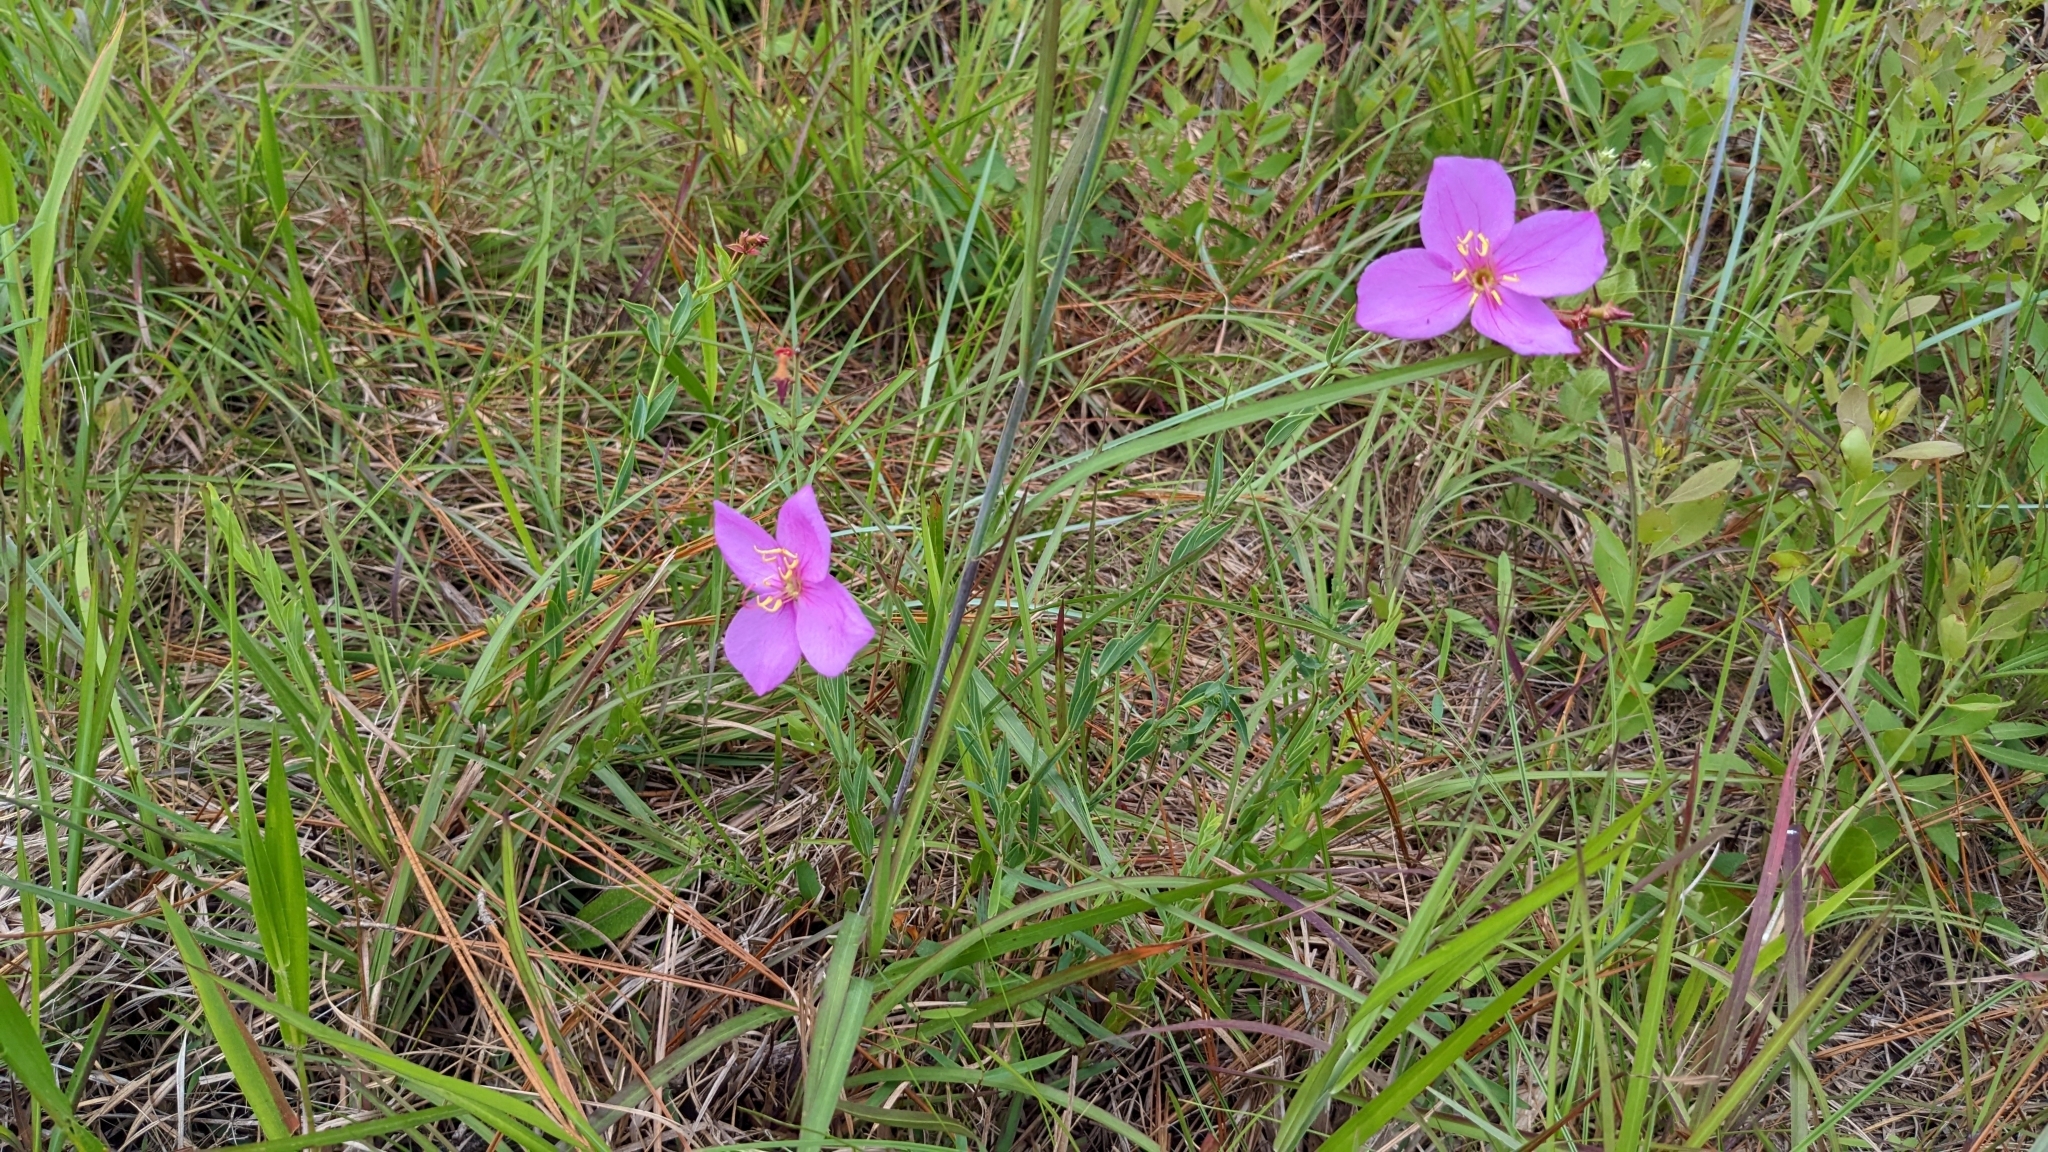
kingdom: Plantae
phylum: Tracheophyta
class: Magnoliopsida
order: Myrtales
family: Melastomataceae
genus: Rhexia
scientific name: Rhexia alifanus
